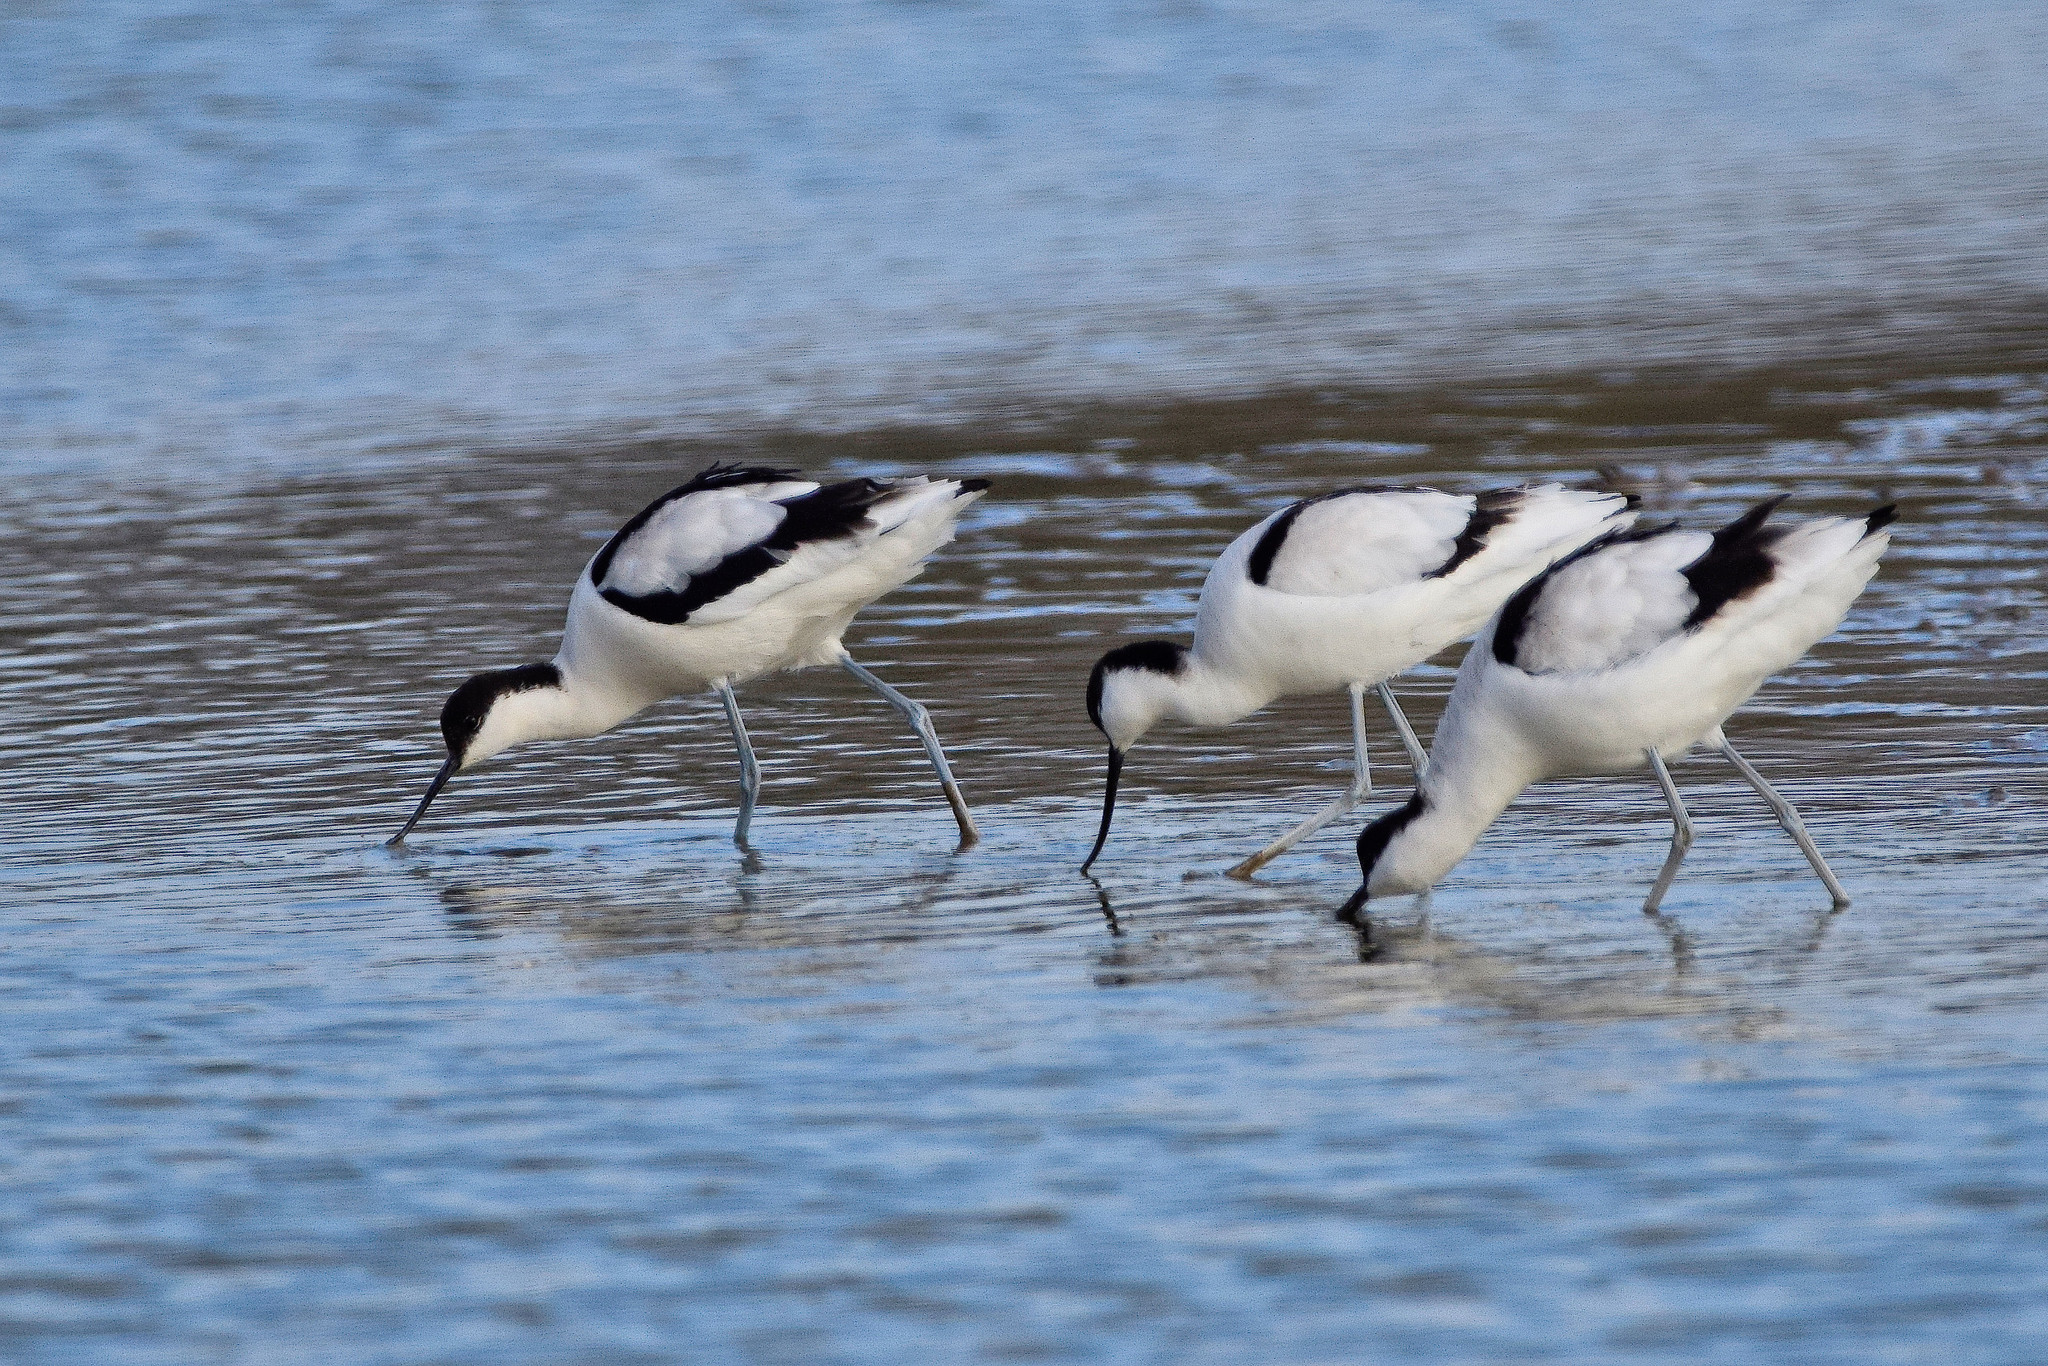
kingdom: Animalia
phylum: Chordata
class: Aves
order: Charadriiformes
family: Recurvirostridae
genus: Recurvirostra
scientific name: Recurvirostra avosetta
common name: Pied avocet
